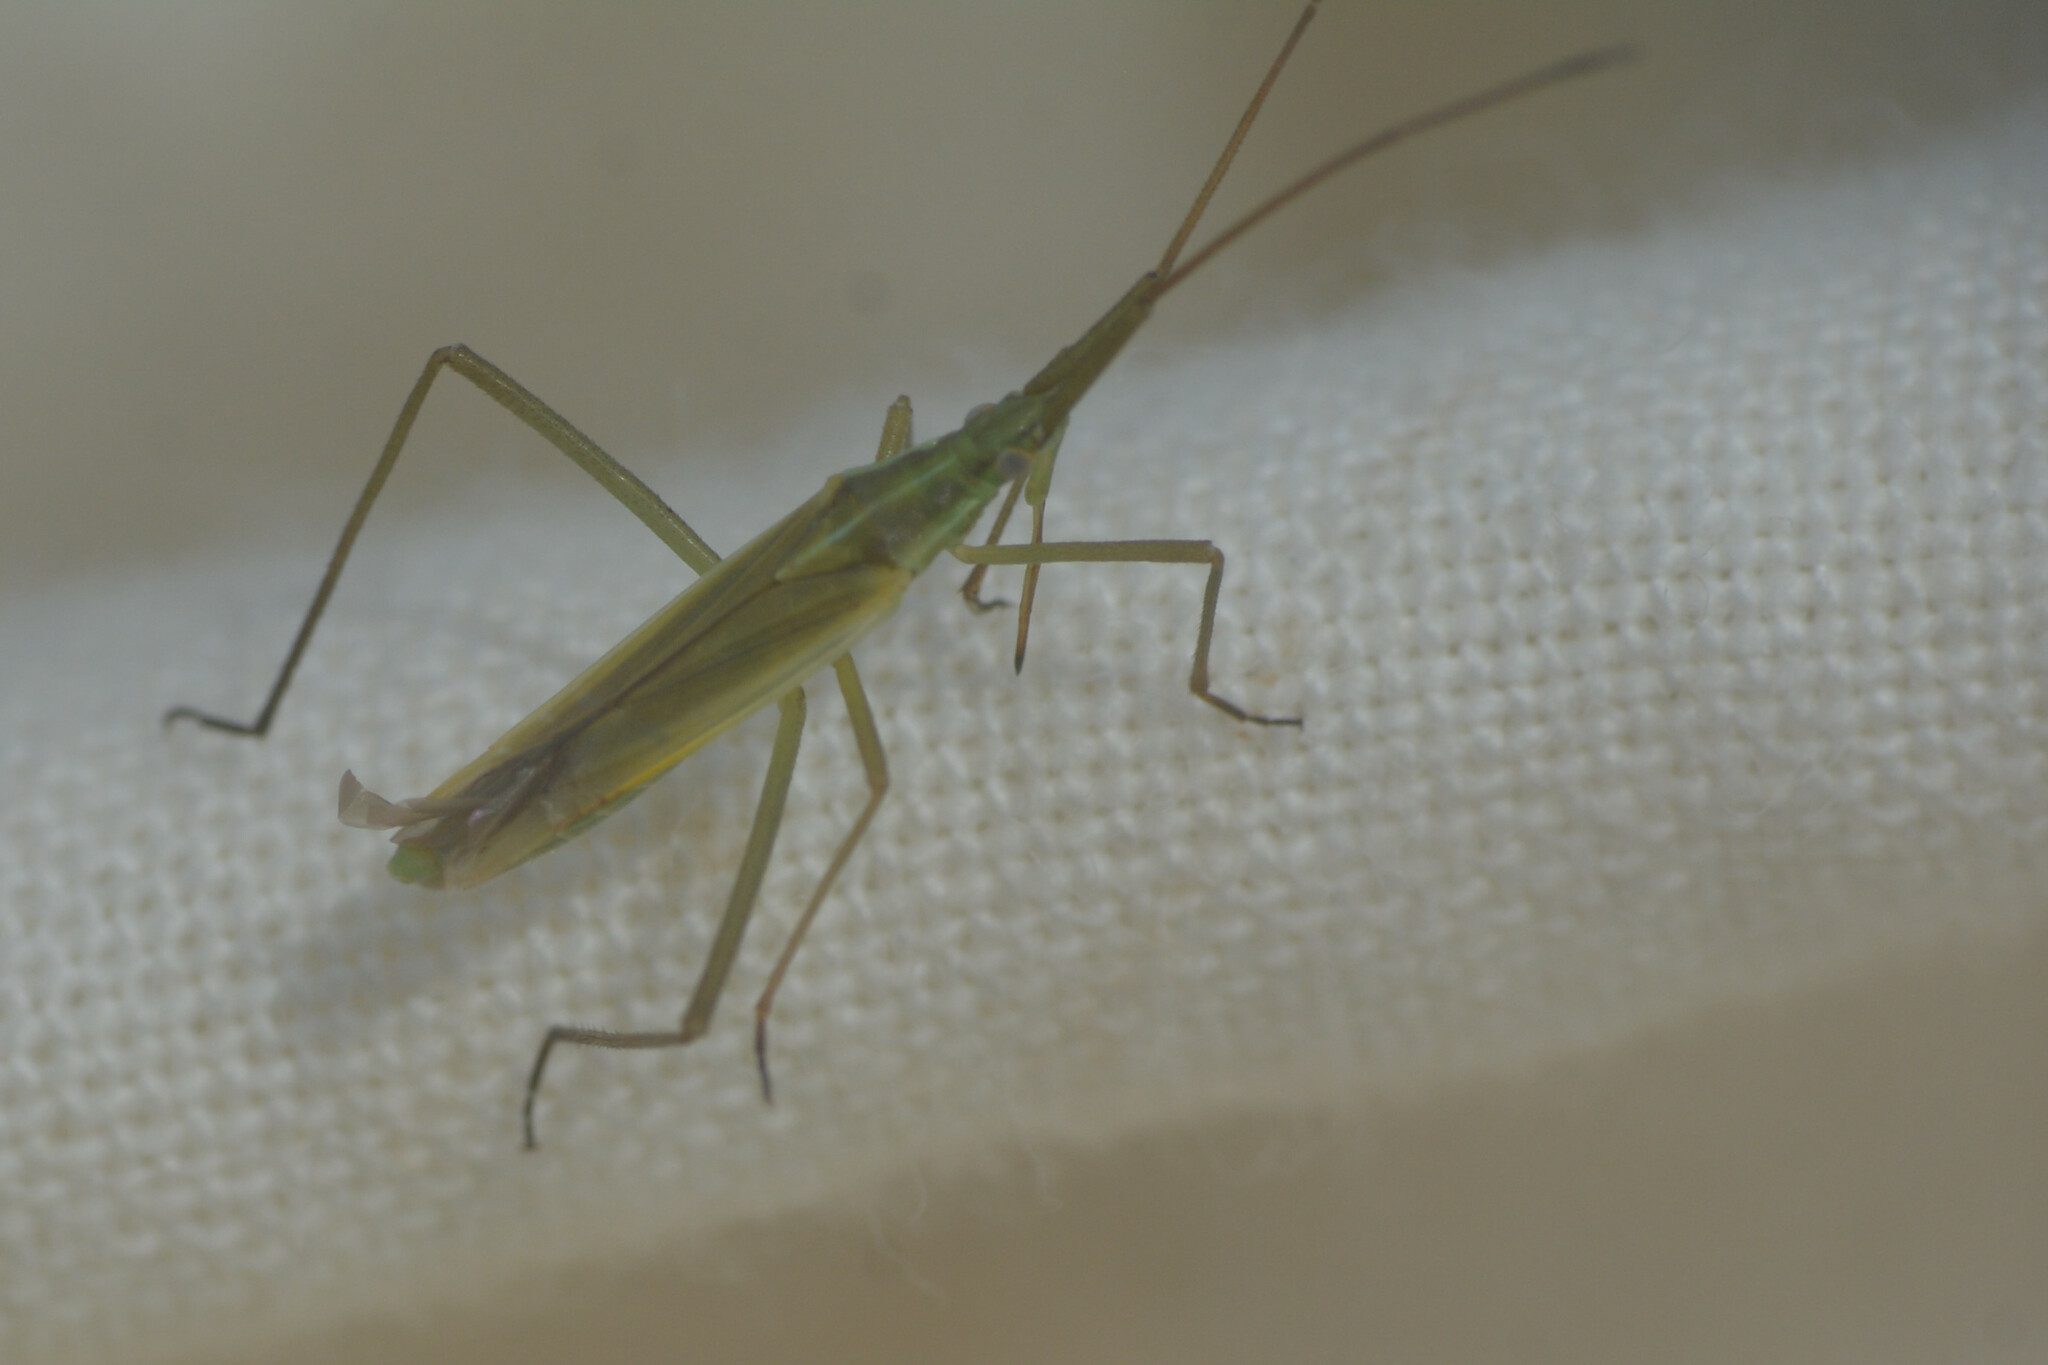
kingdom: Animalia
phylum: Arthropoda
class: Insecta
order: Hemiptera
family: Miridae
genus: Megaloceroea
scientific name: Megaloceroea recticornis
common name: Plant bug
